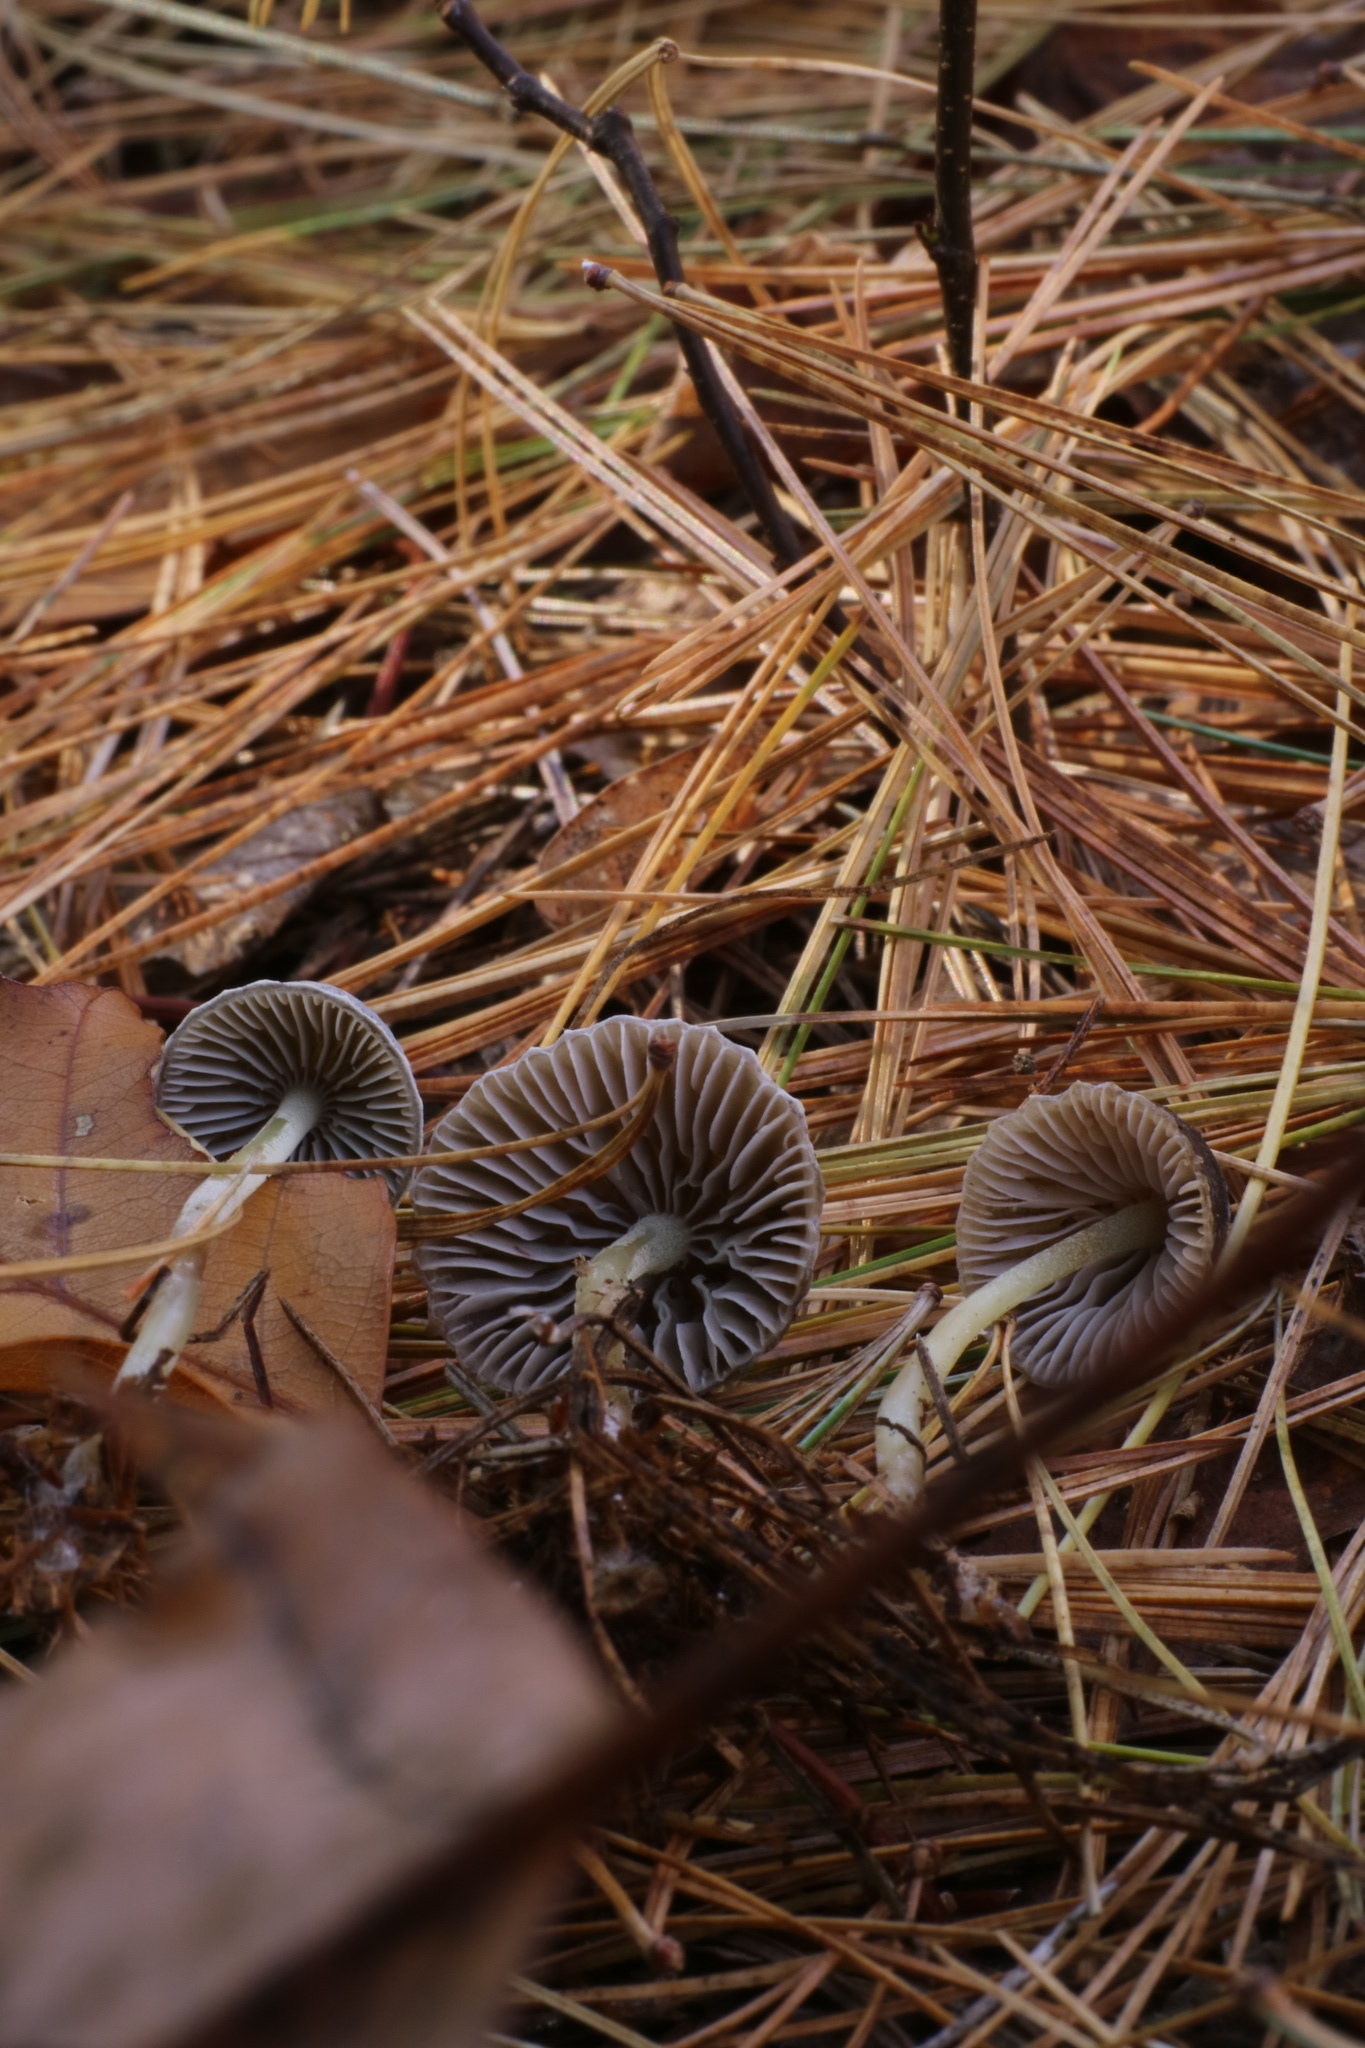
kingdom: Fungi
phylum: Basidiomycota
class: Agaricomycetes
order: Agaricales
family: Mycenaceae
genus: Mycena
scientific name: Mycena griseoviridis
